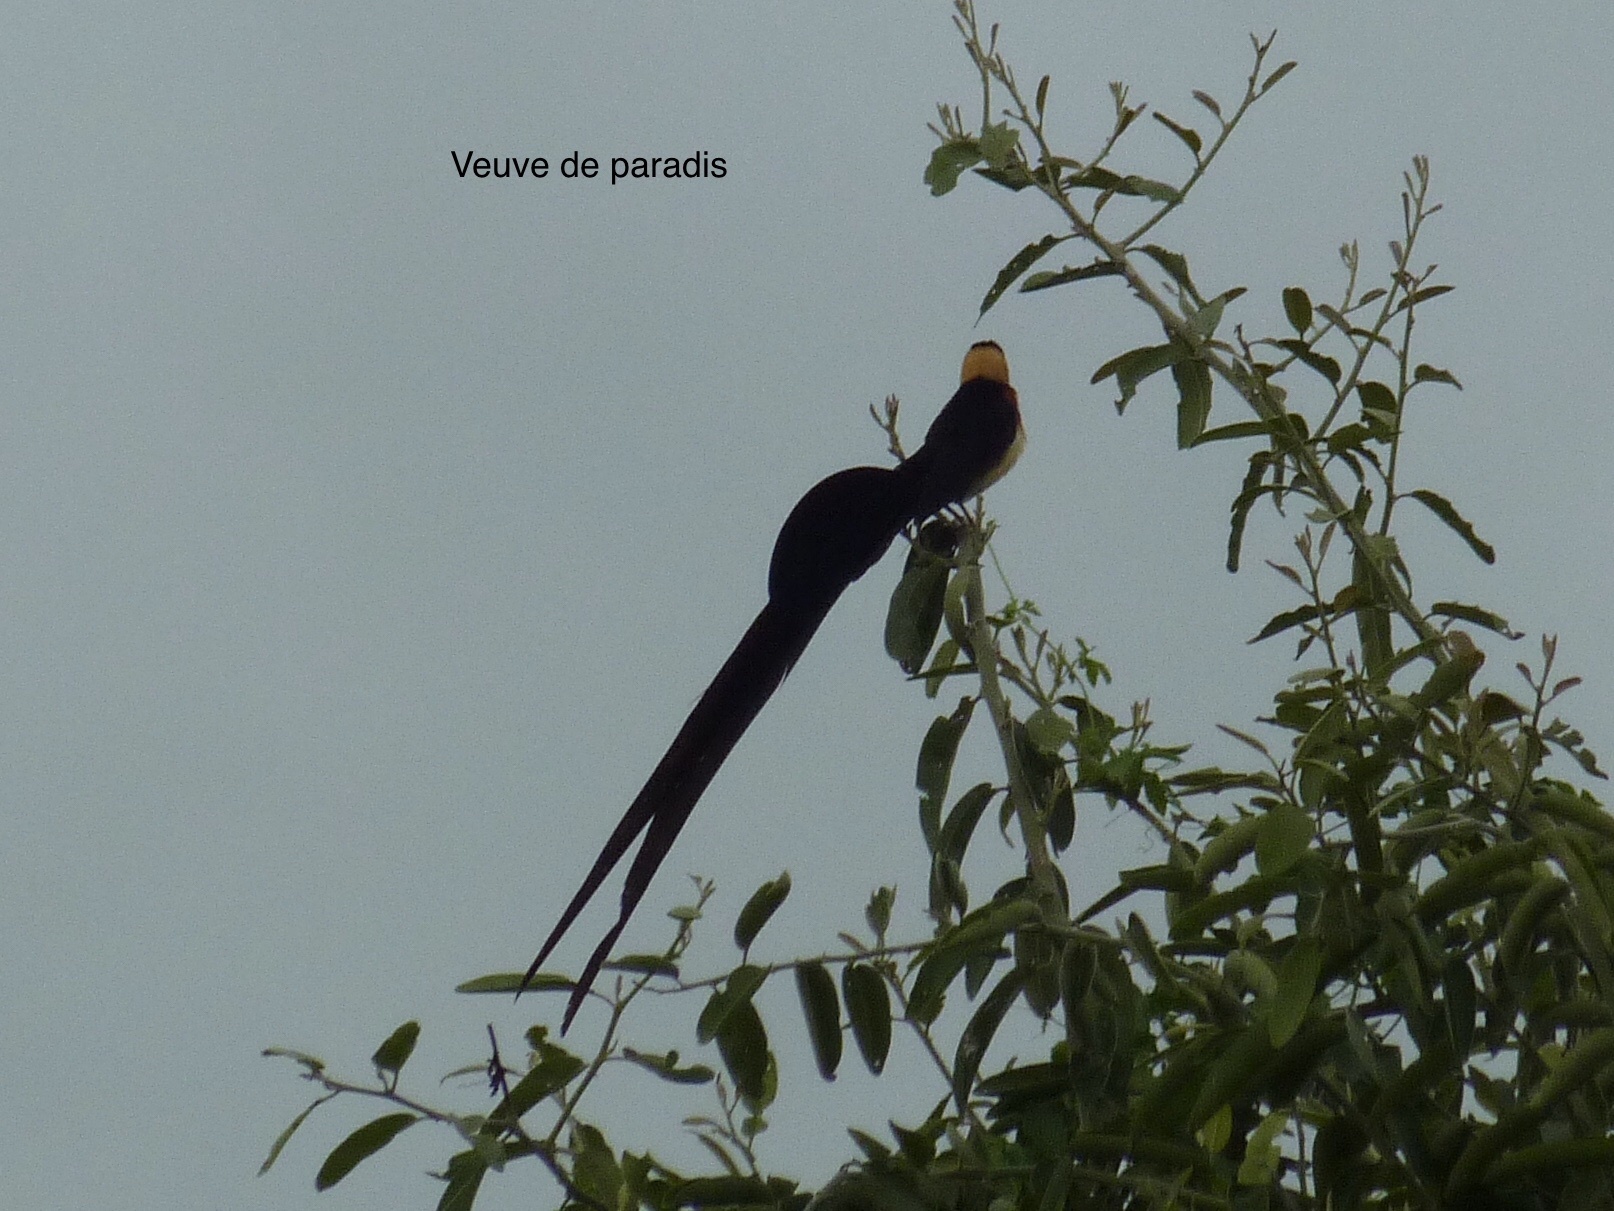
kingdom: Animalia
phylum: Chordata
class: Aves
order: Passeriformes
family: Viduidae
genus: Vidua
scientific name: Vidua paradisaea
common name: Long-tailed paradise whydah
